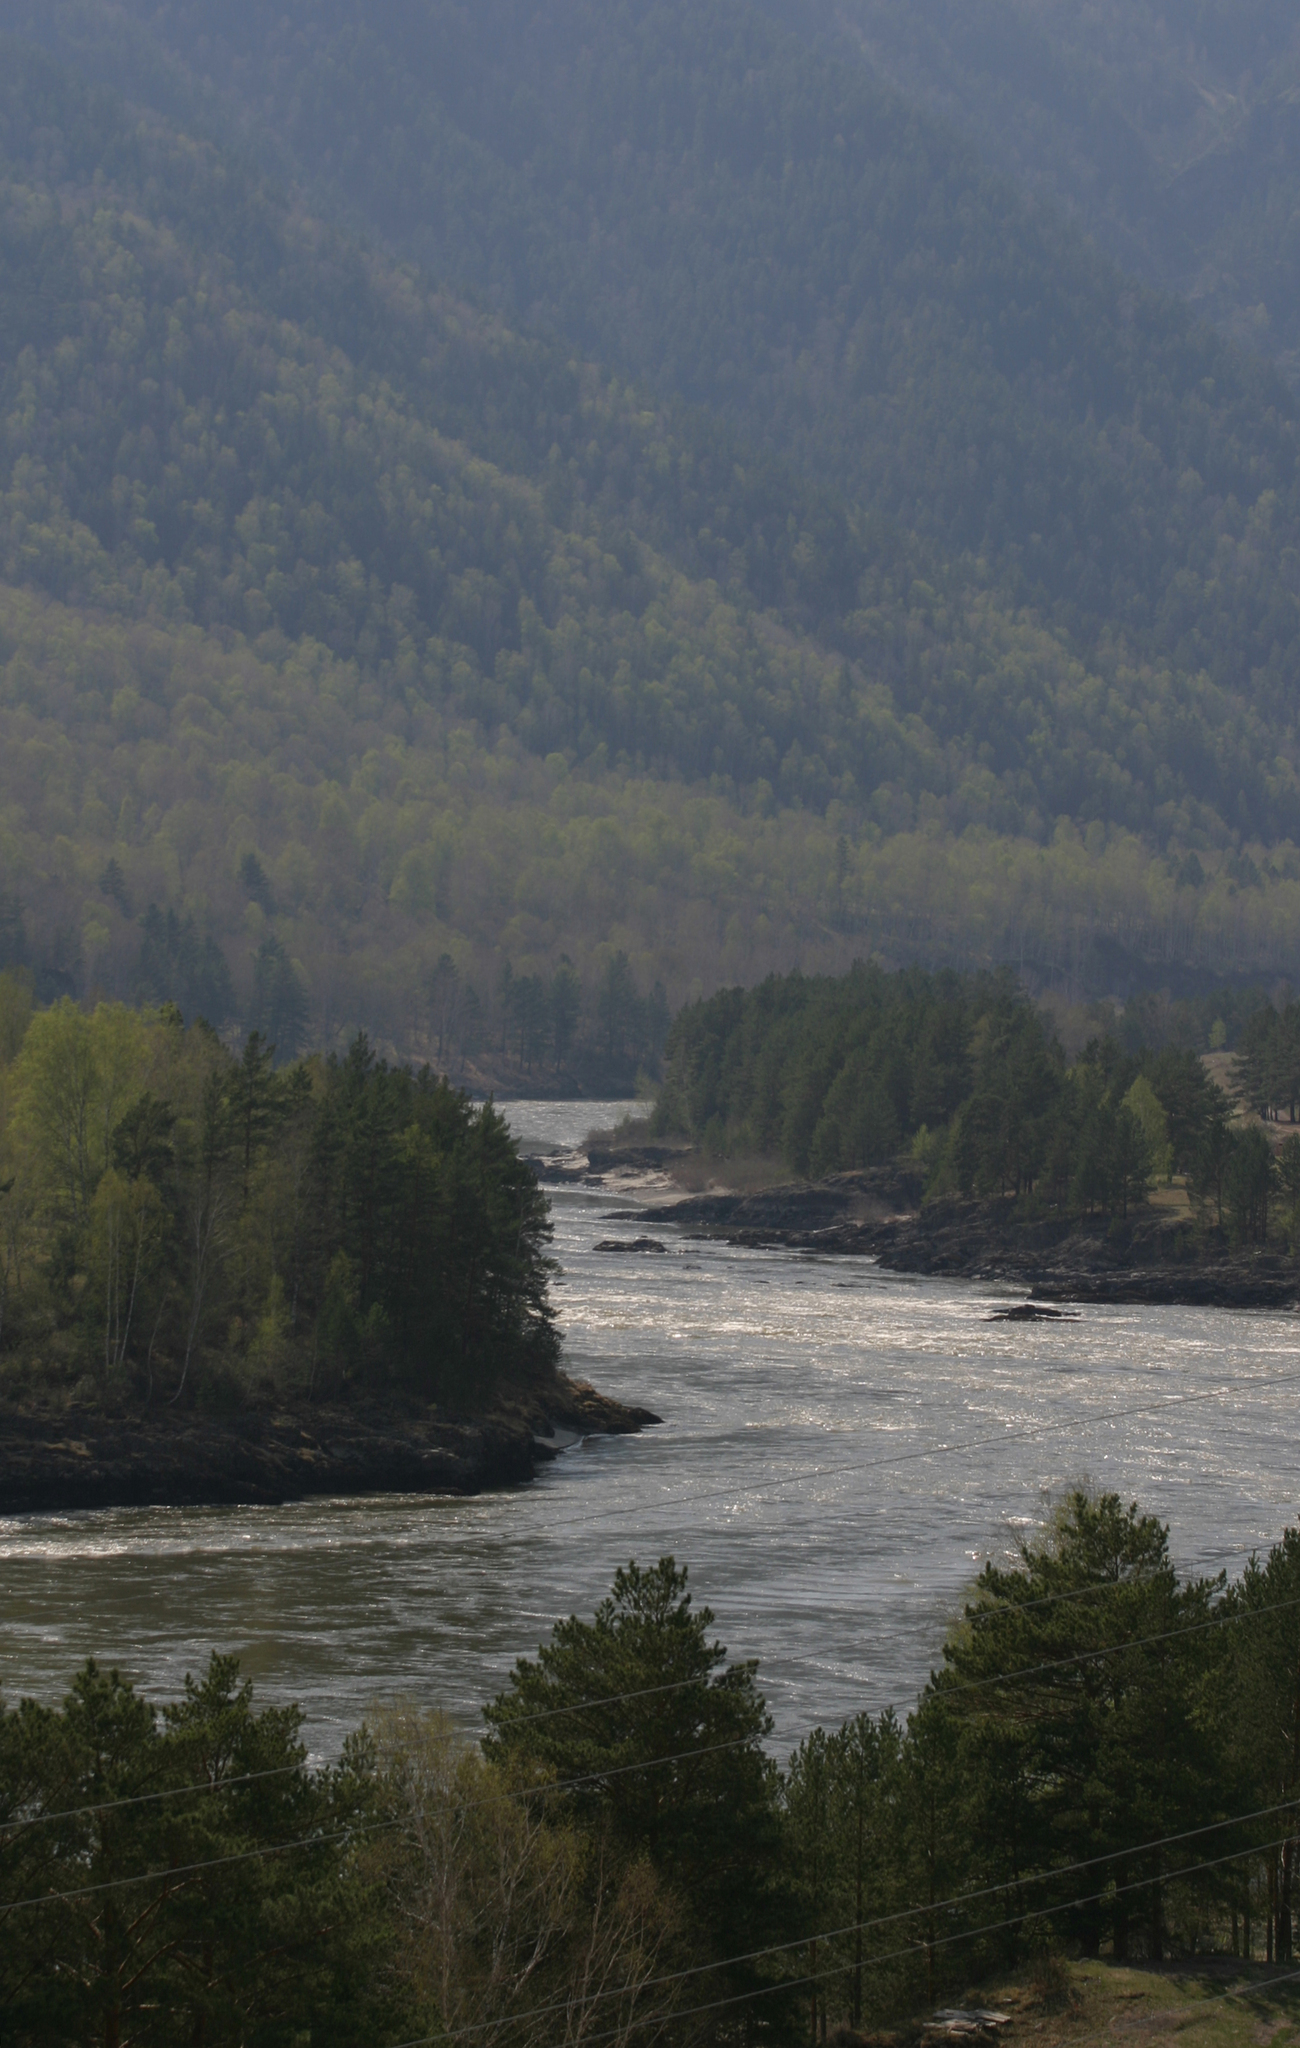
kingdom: Plantae
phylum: Tracheophyta
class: Pinopsida
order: Pinales
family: Pinaceae
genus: Pinus
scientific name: Pinus sylvestris
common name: Scots pine
